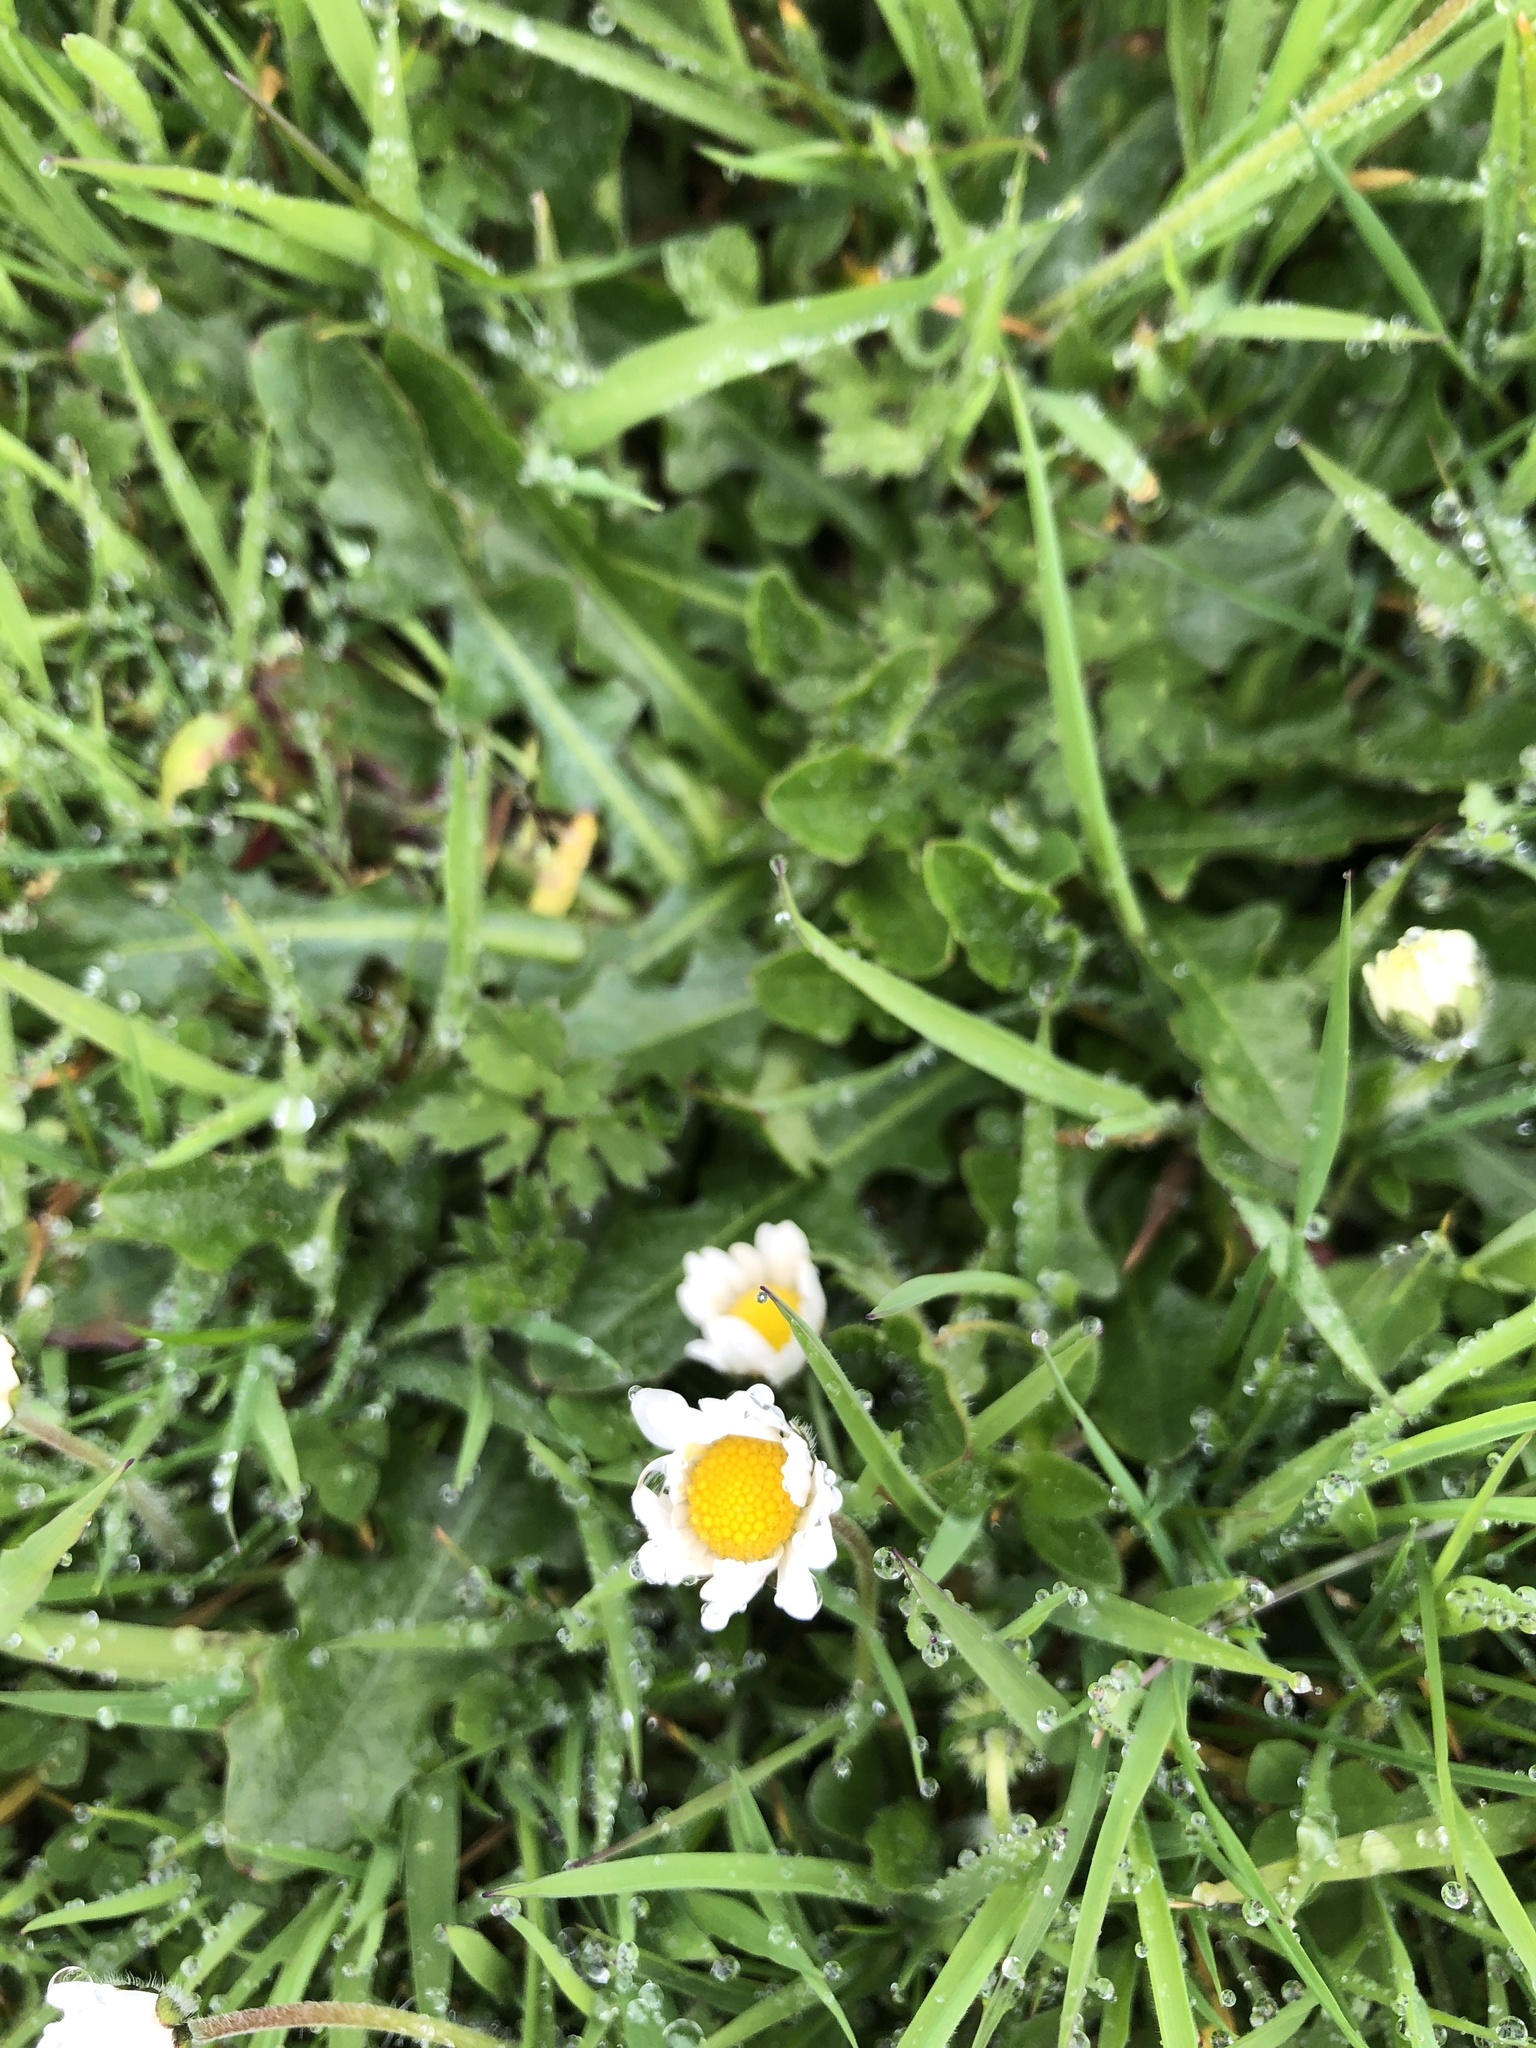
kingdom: Plantae
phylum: Tracheophyta
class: Magnoliopsida
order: Asterales
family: Asteraceae
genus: Bellis
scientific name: Bellis perennis
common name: Lawndaisy
